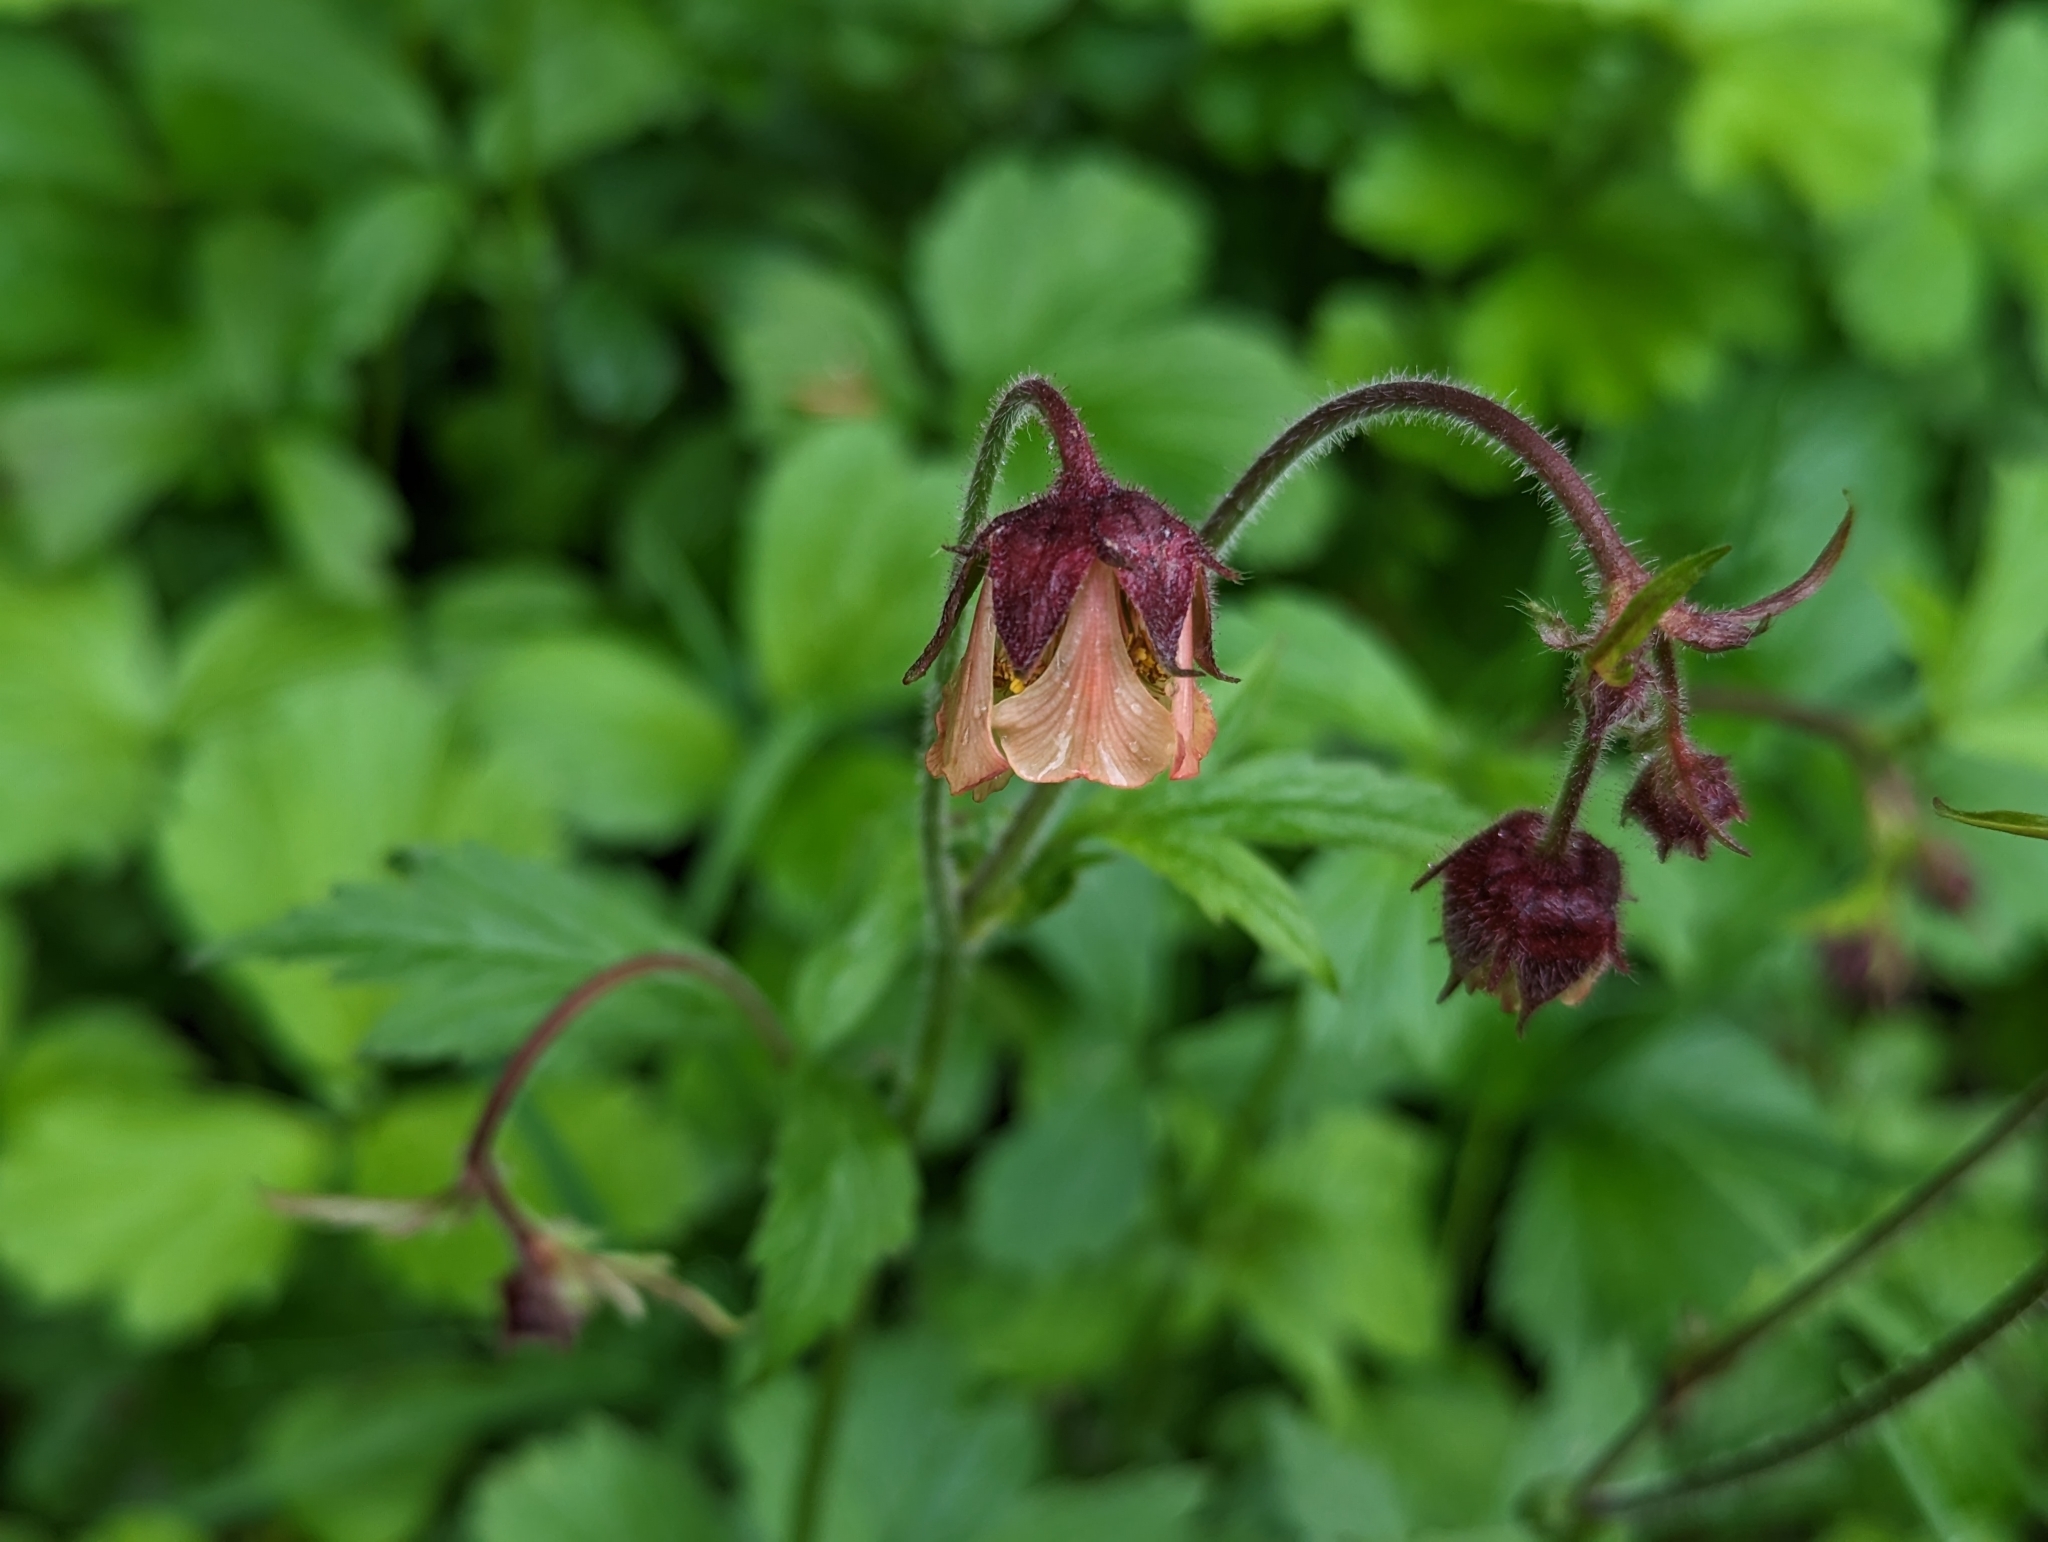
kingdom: Plantae
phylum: Tracheophyta
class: Magnoliopsida
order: Rosales
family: Rosaceae
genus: Geum
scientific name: Geum rivale
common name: Water avens
